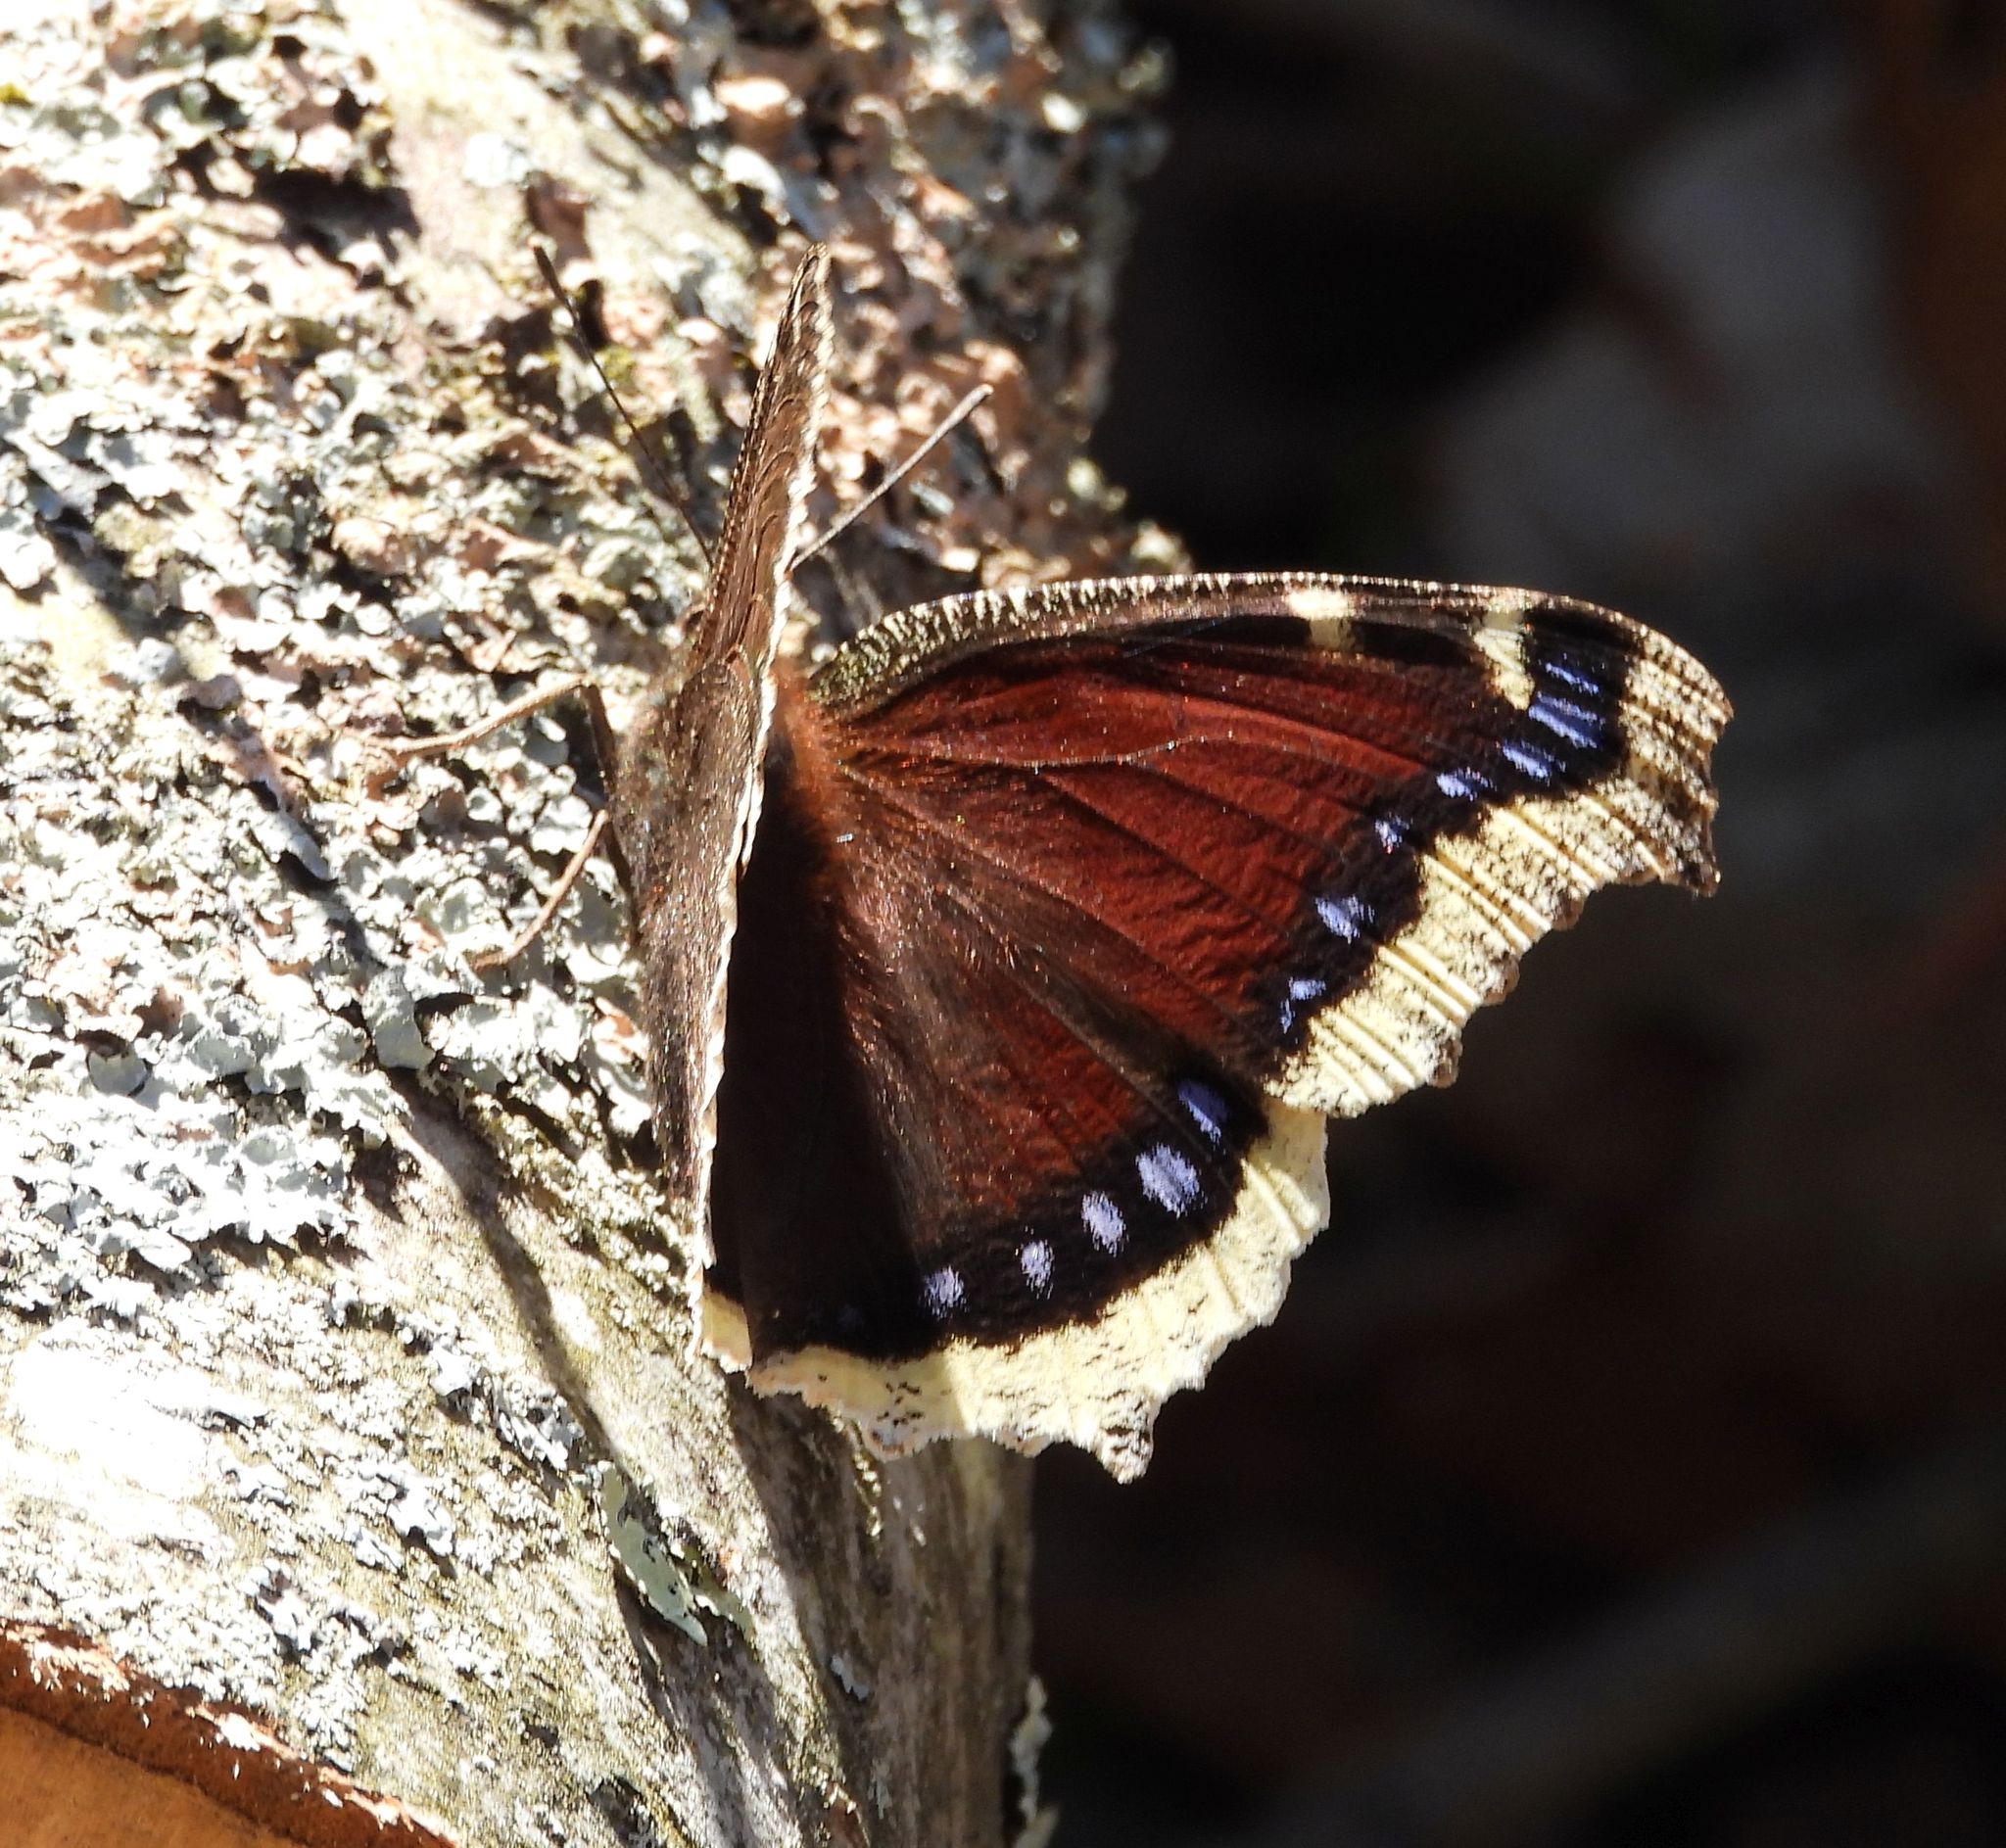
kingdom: Animalia
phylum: Arthropoda
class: Insecta
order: Lepidoptera
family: Nymphalidae
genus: Nymphalis
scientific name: Nymphalis antiopa
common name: Camberwell beauty
